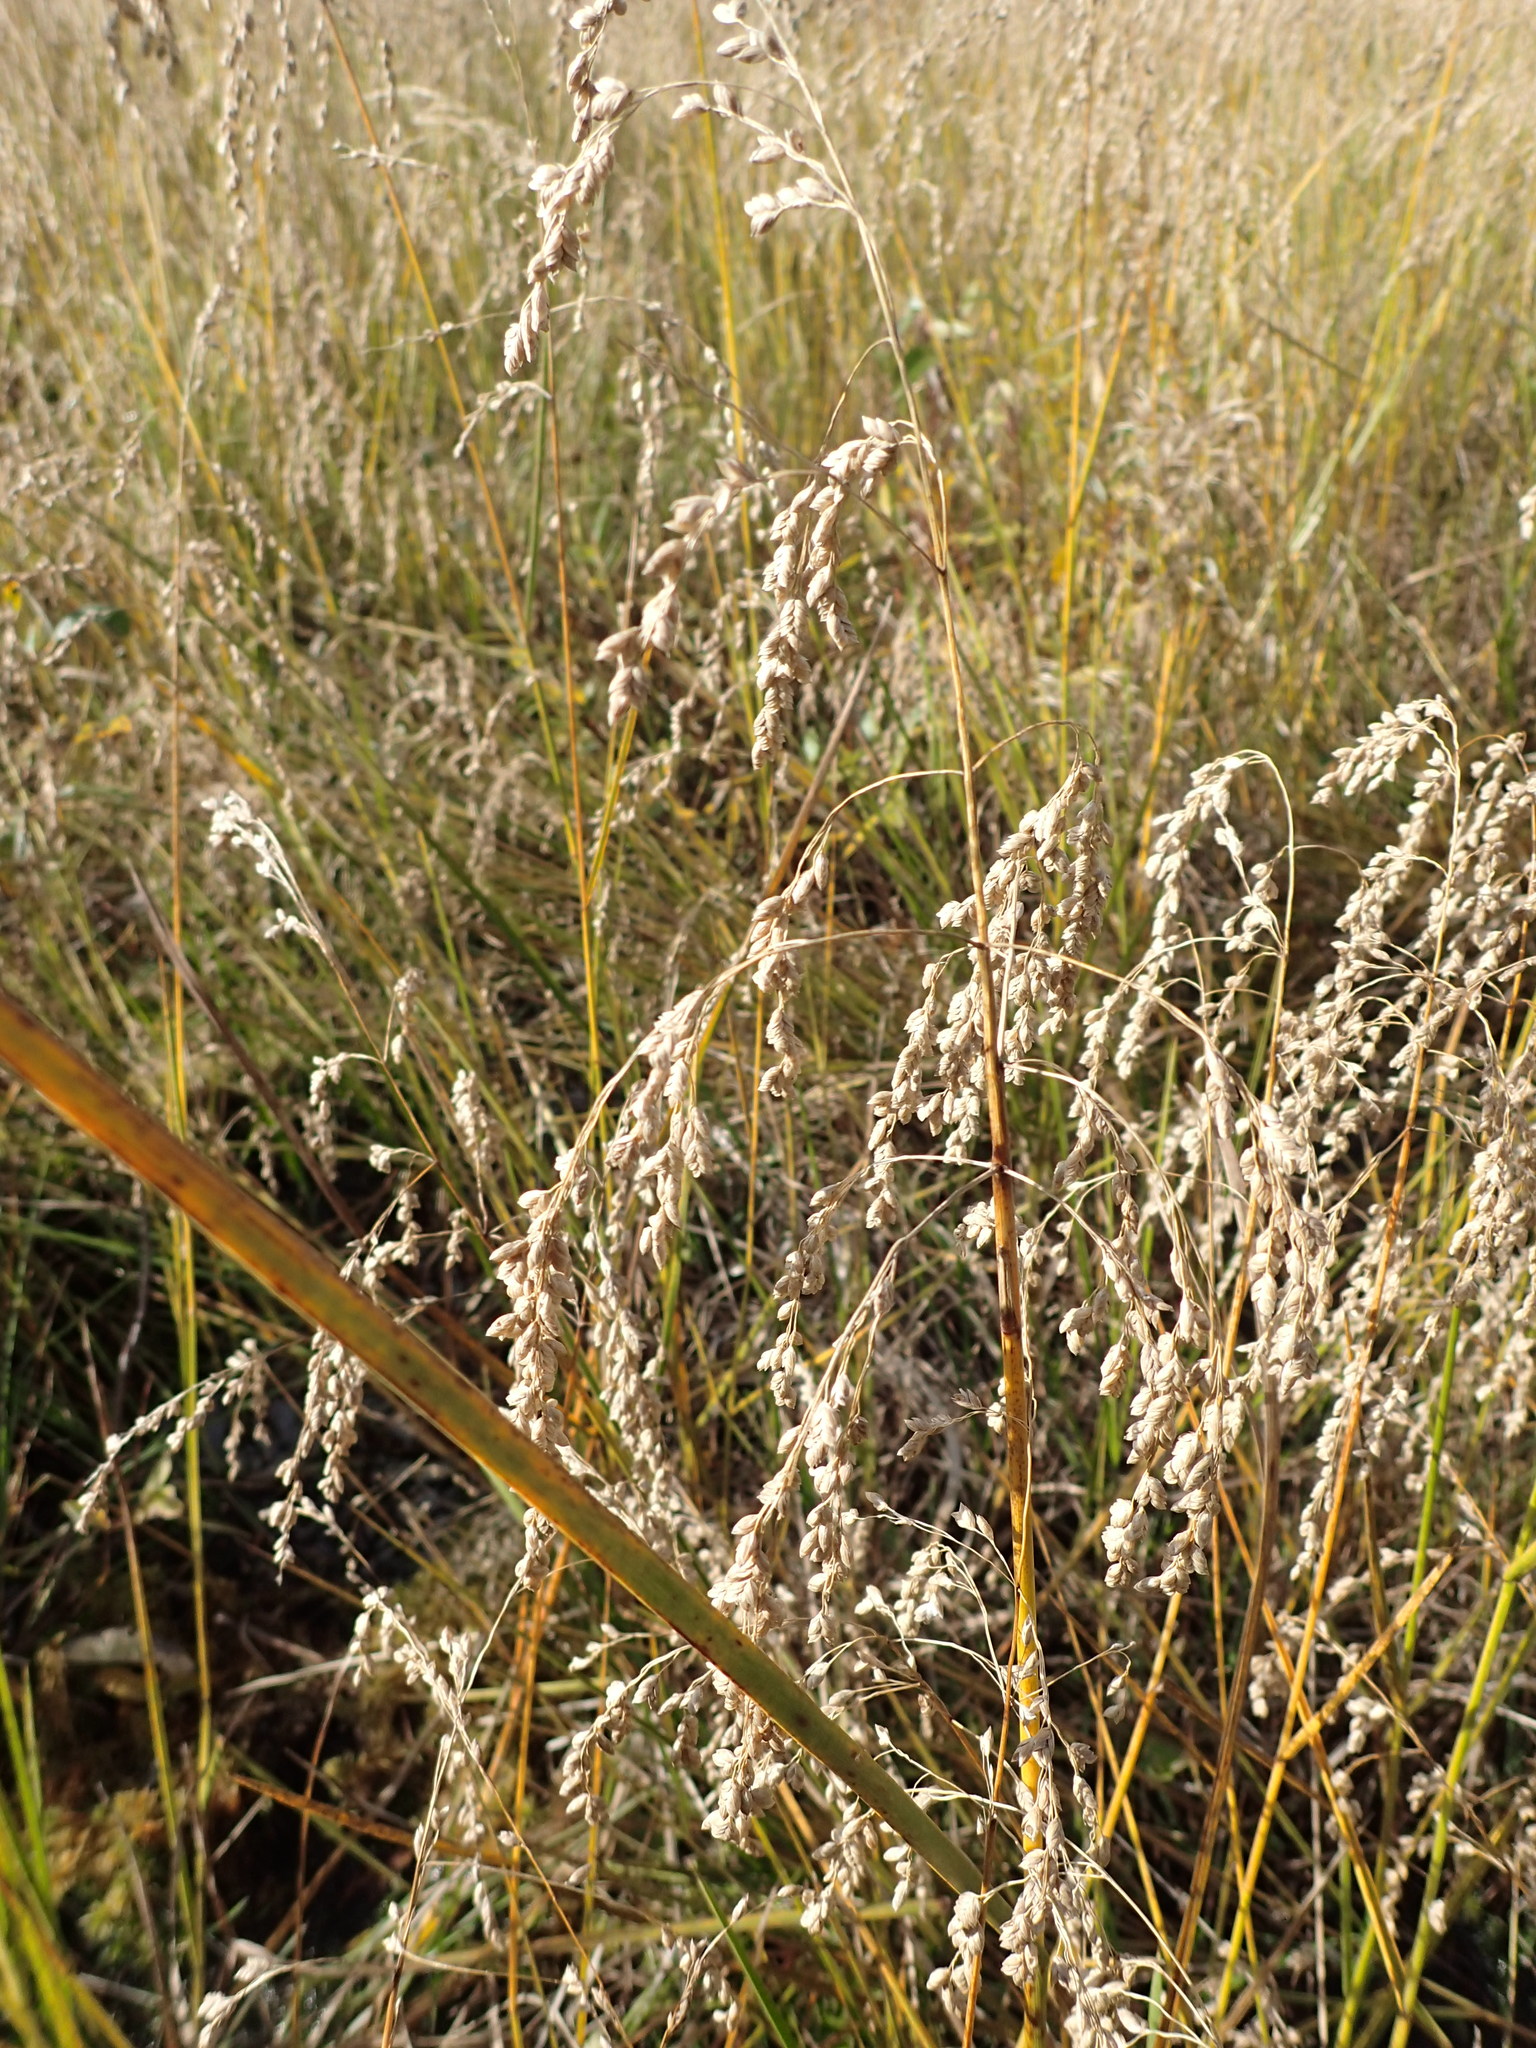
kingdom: Plantae
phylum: Tracheophyta
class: Liliopsida
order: Poales
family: Poaceae
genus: Glyceria
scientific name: Glyceria canadensis
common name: Canada mannagrass
